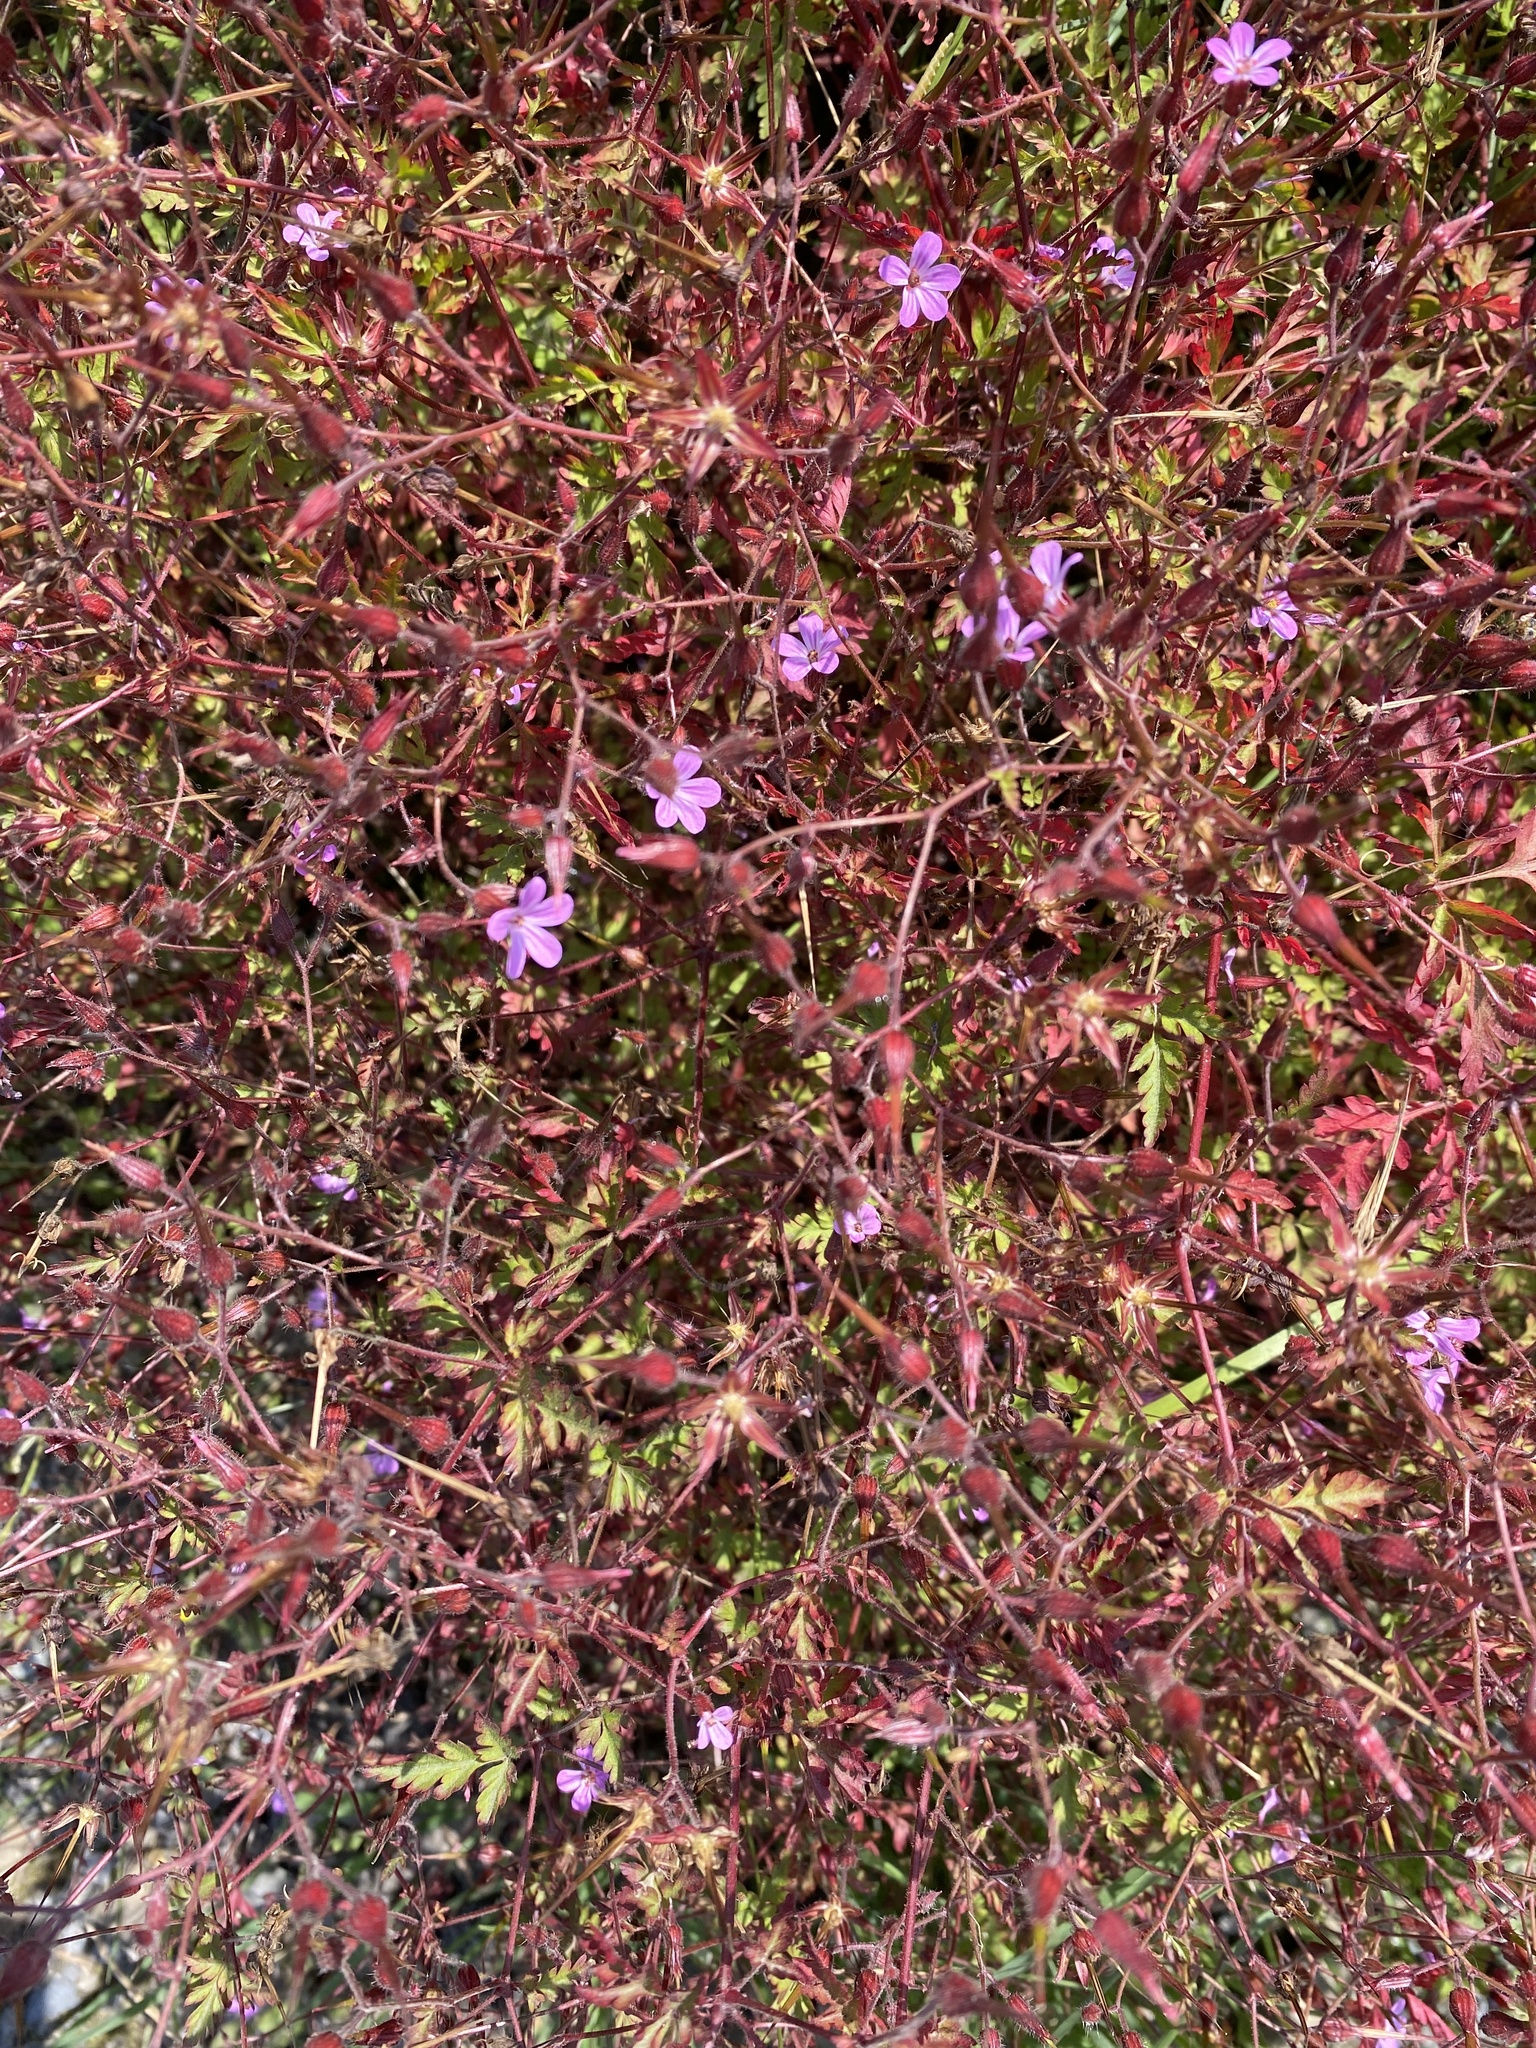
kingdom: Plantae
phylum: Tracheophyta
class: Magnoliopsida
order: Geraniales
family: Geraniaceae
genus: Geranium
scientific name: Geranium robertianum
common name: Herb-robert
